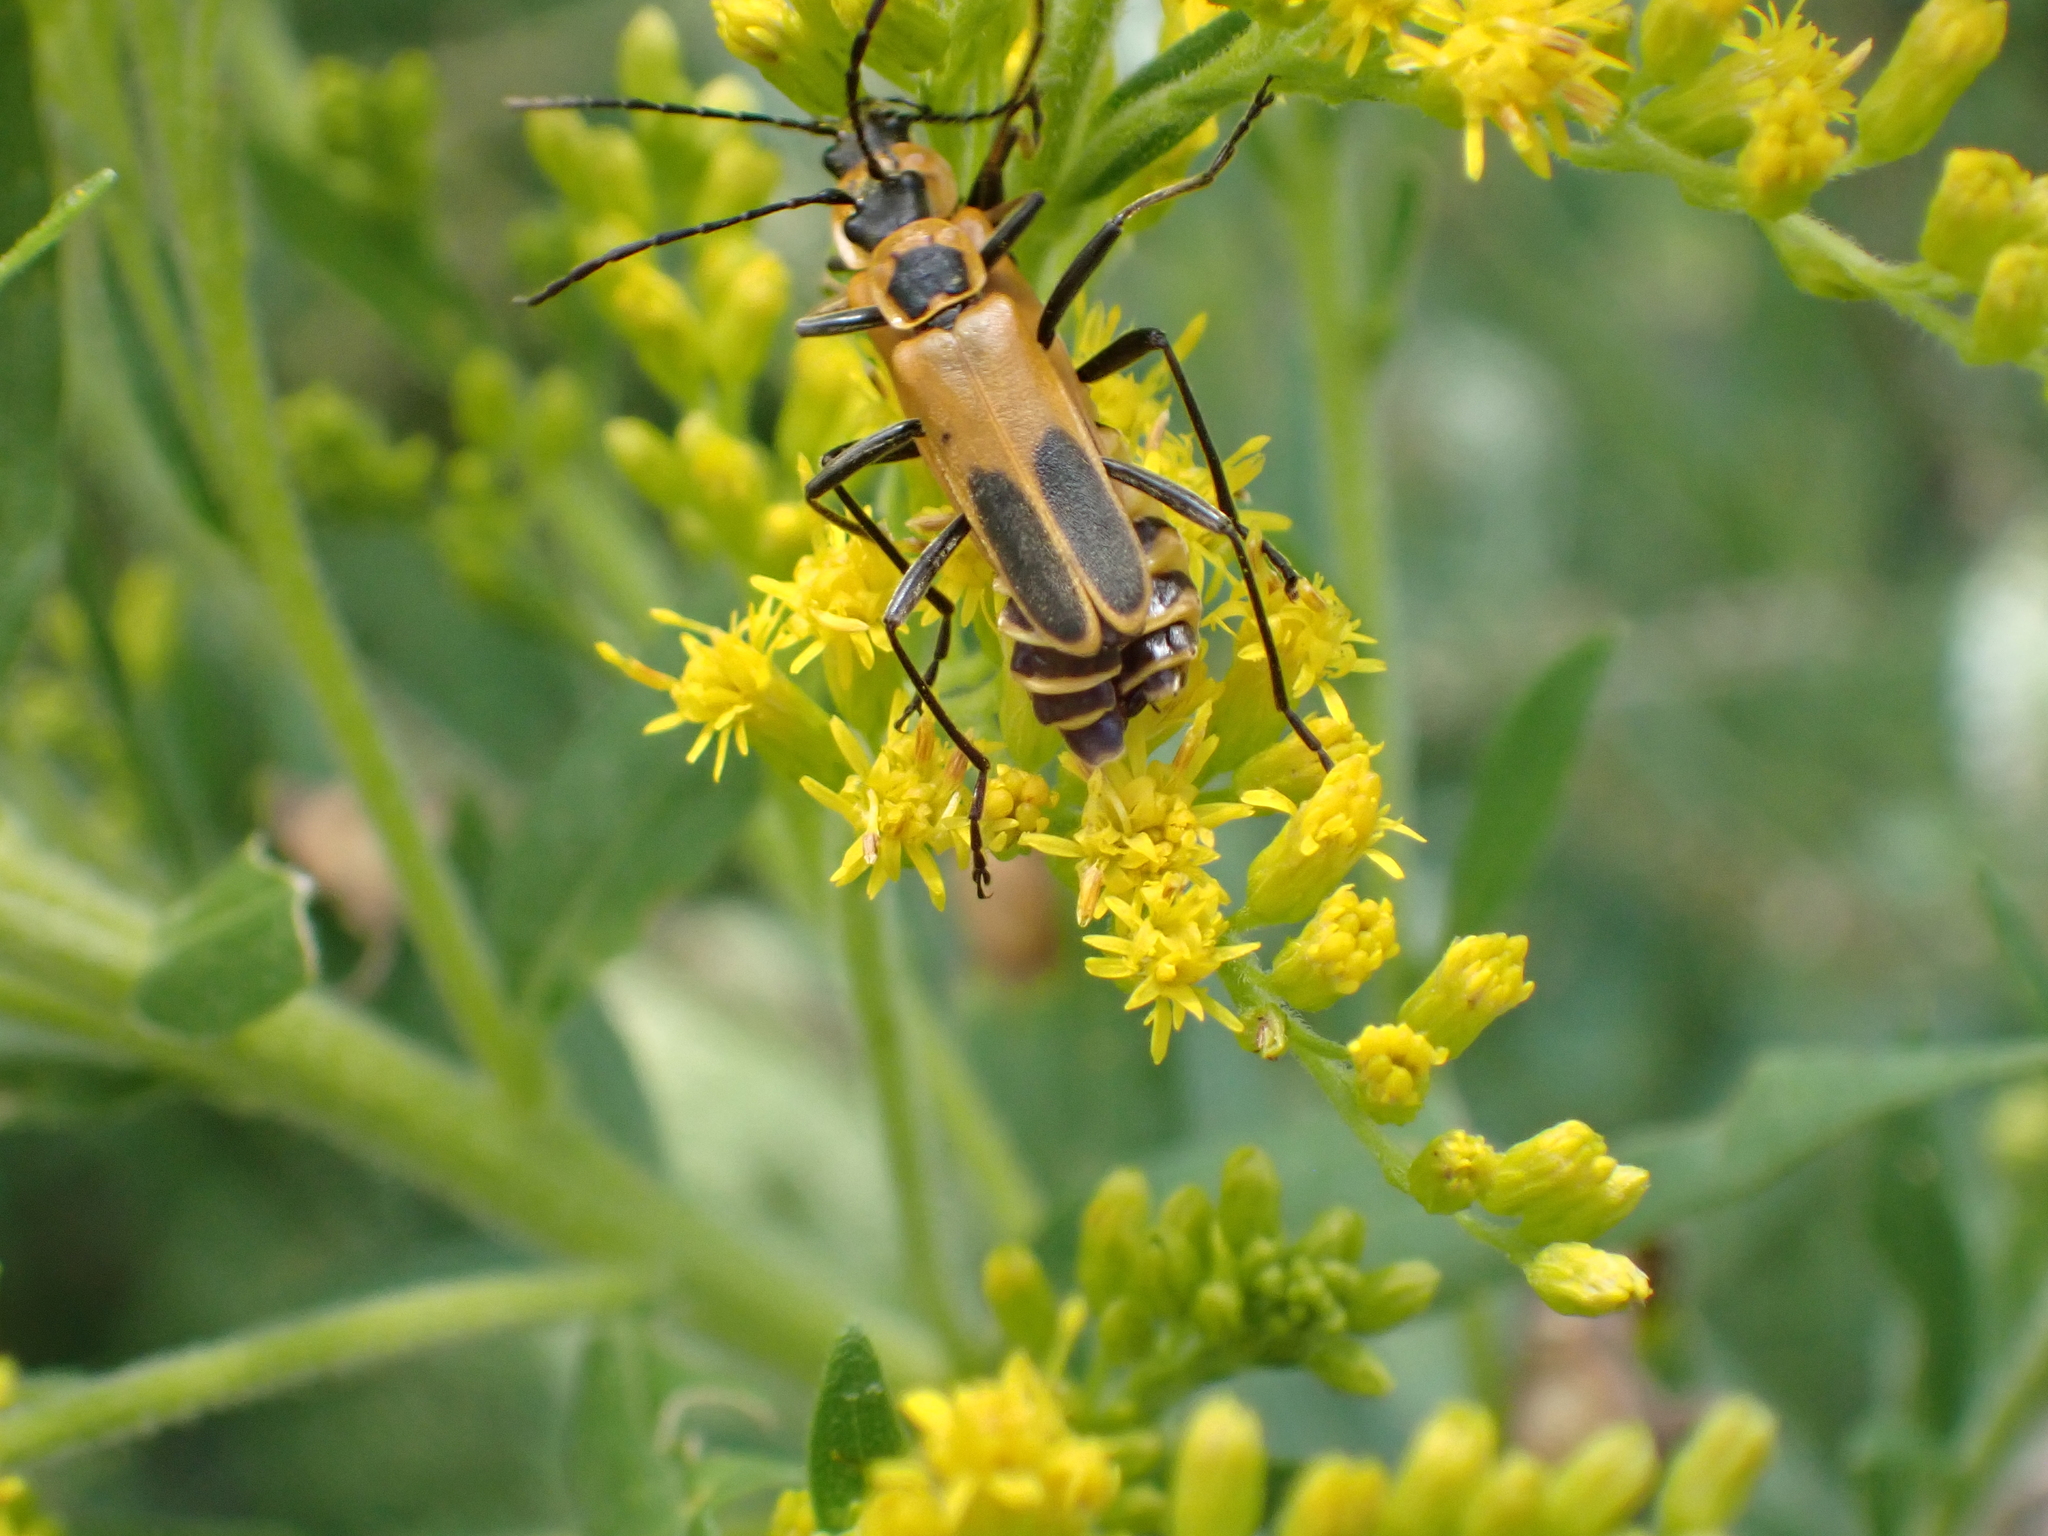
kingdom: Animalia
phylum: Arthropoda
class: Insecta
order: Coleoptera
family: Cantharidae
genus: Chauliognathus
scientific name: Chauliognathus pensylvanicus
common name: Goldenrod soldier beetle
